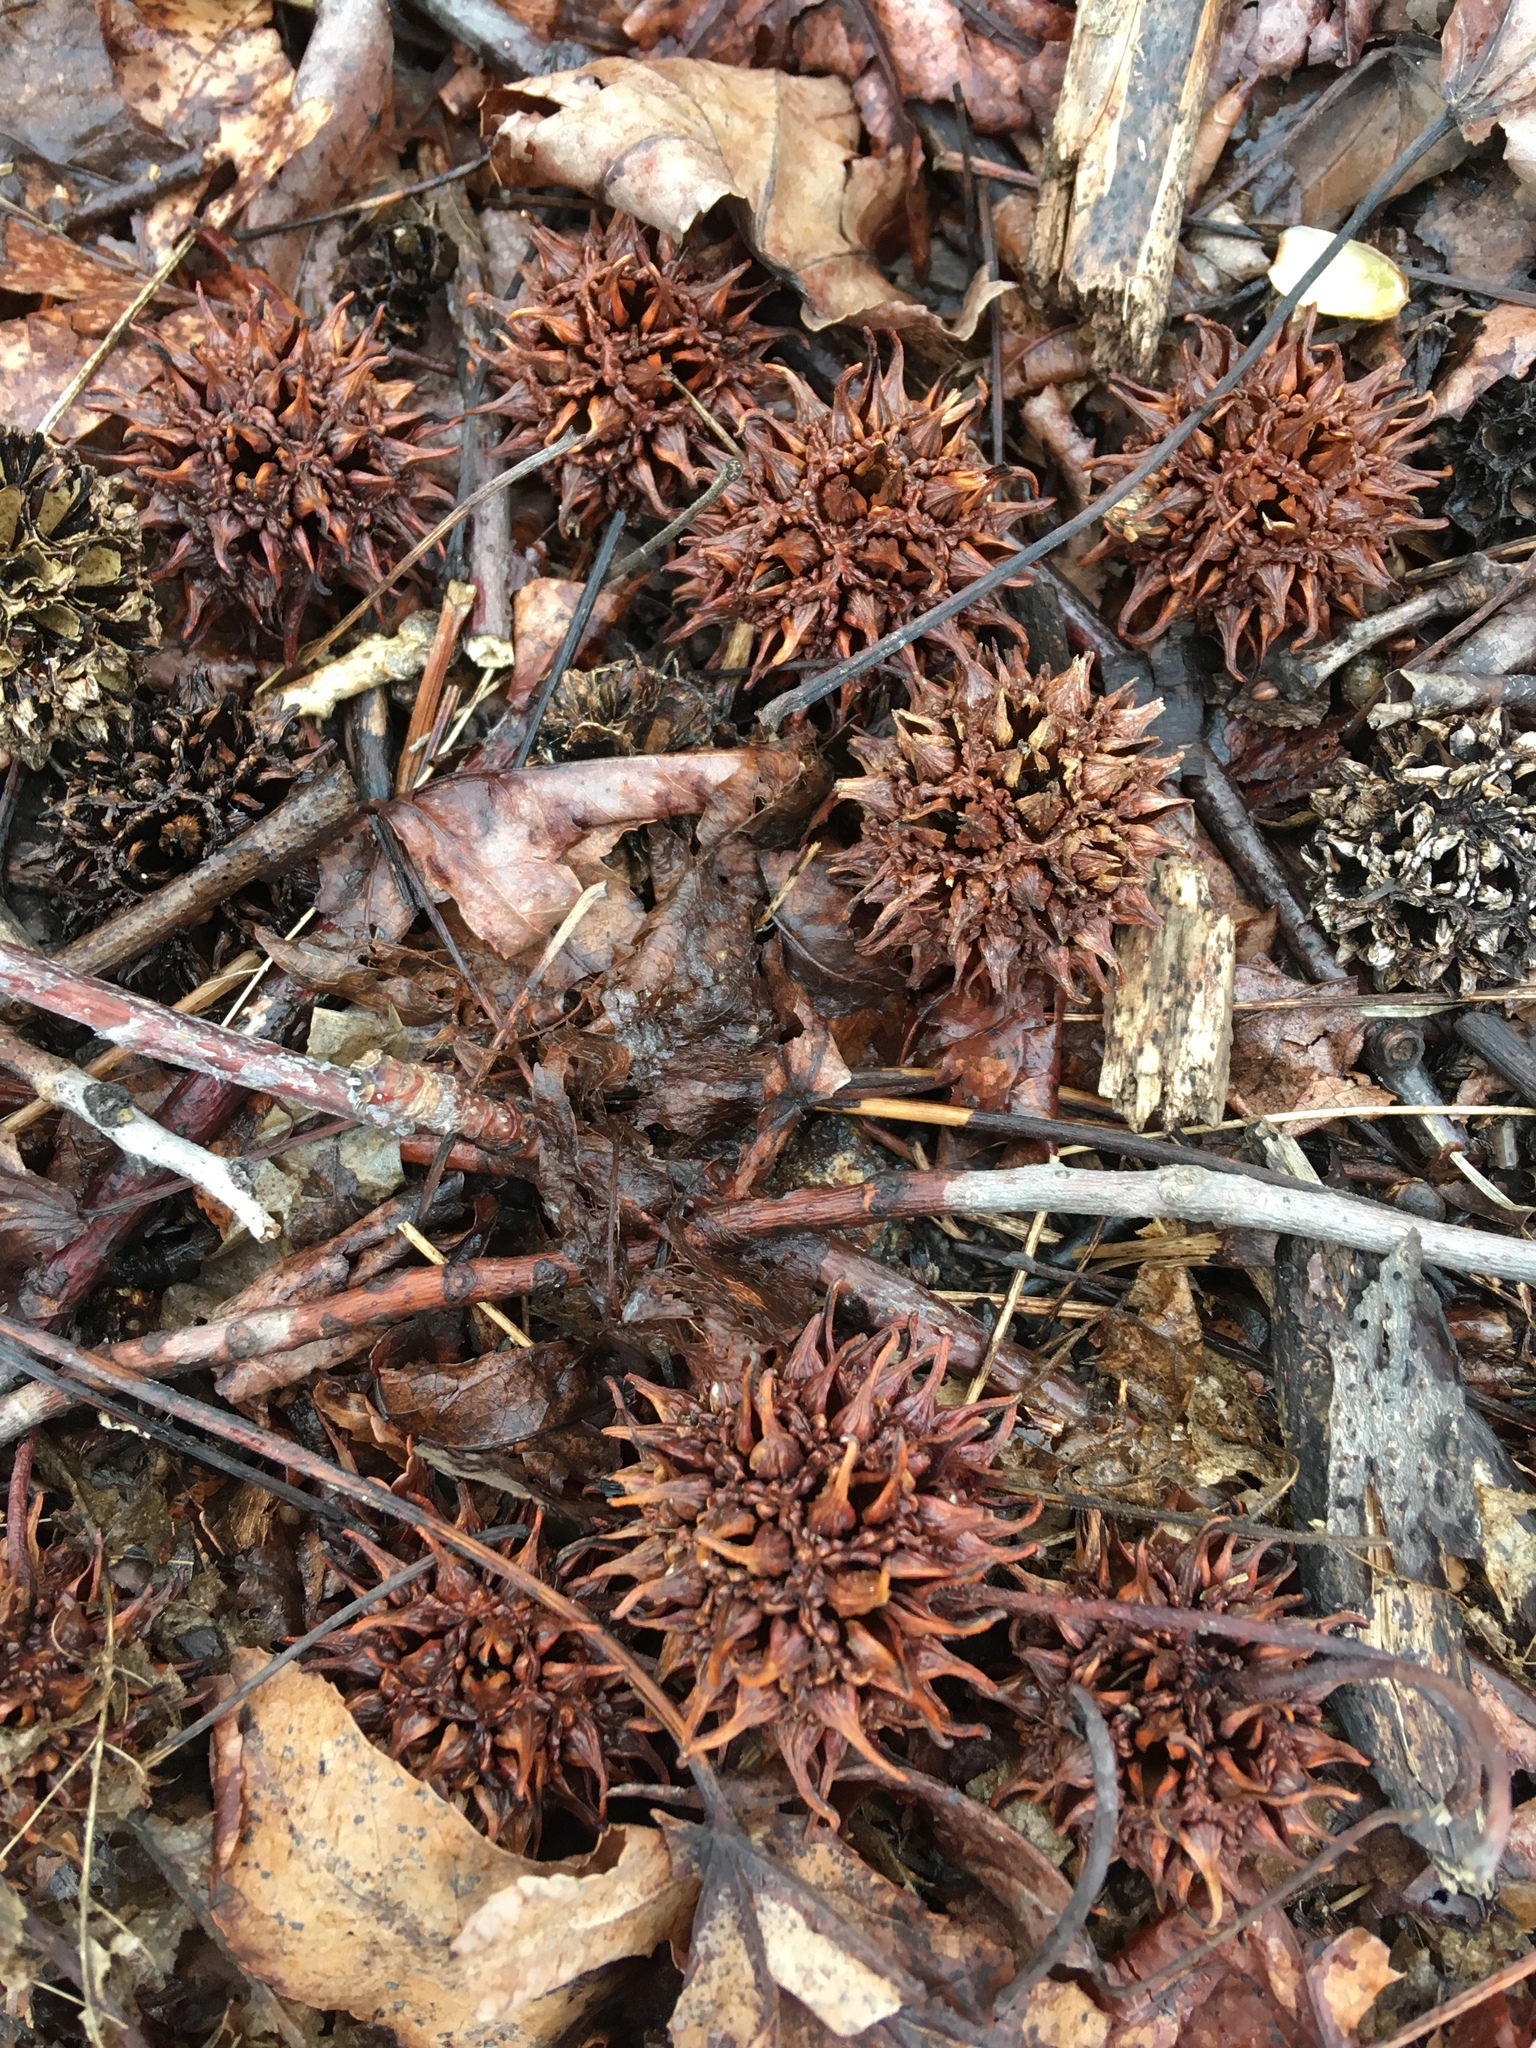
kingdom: Plantae
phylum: Tracheophyta
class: Magnoliopsida
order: Saxifragales
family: Altingiaceae
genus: Liquidambar
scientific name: Liquidambar styraciflua
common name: Sweet gum
